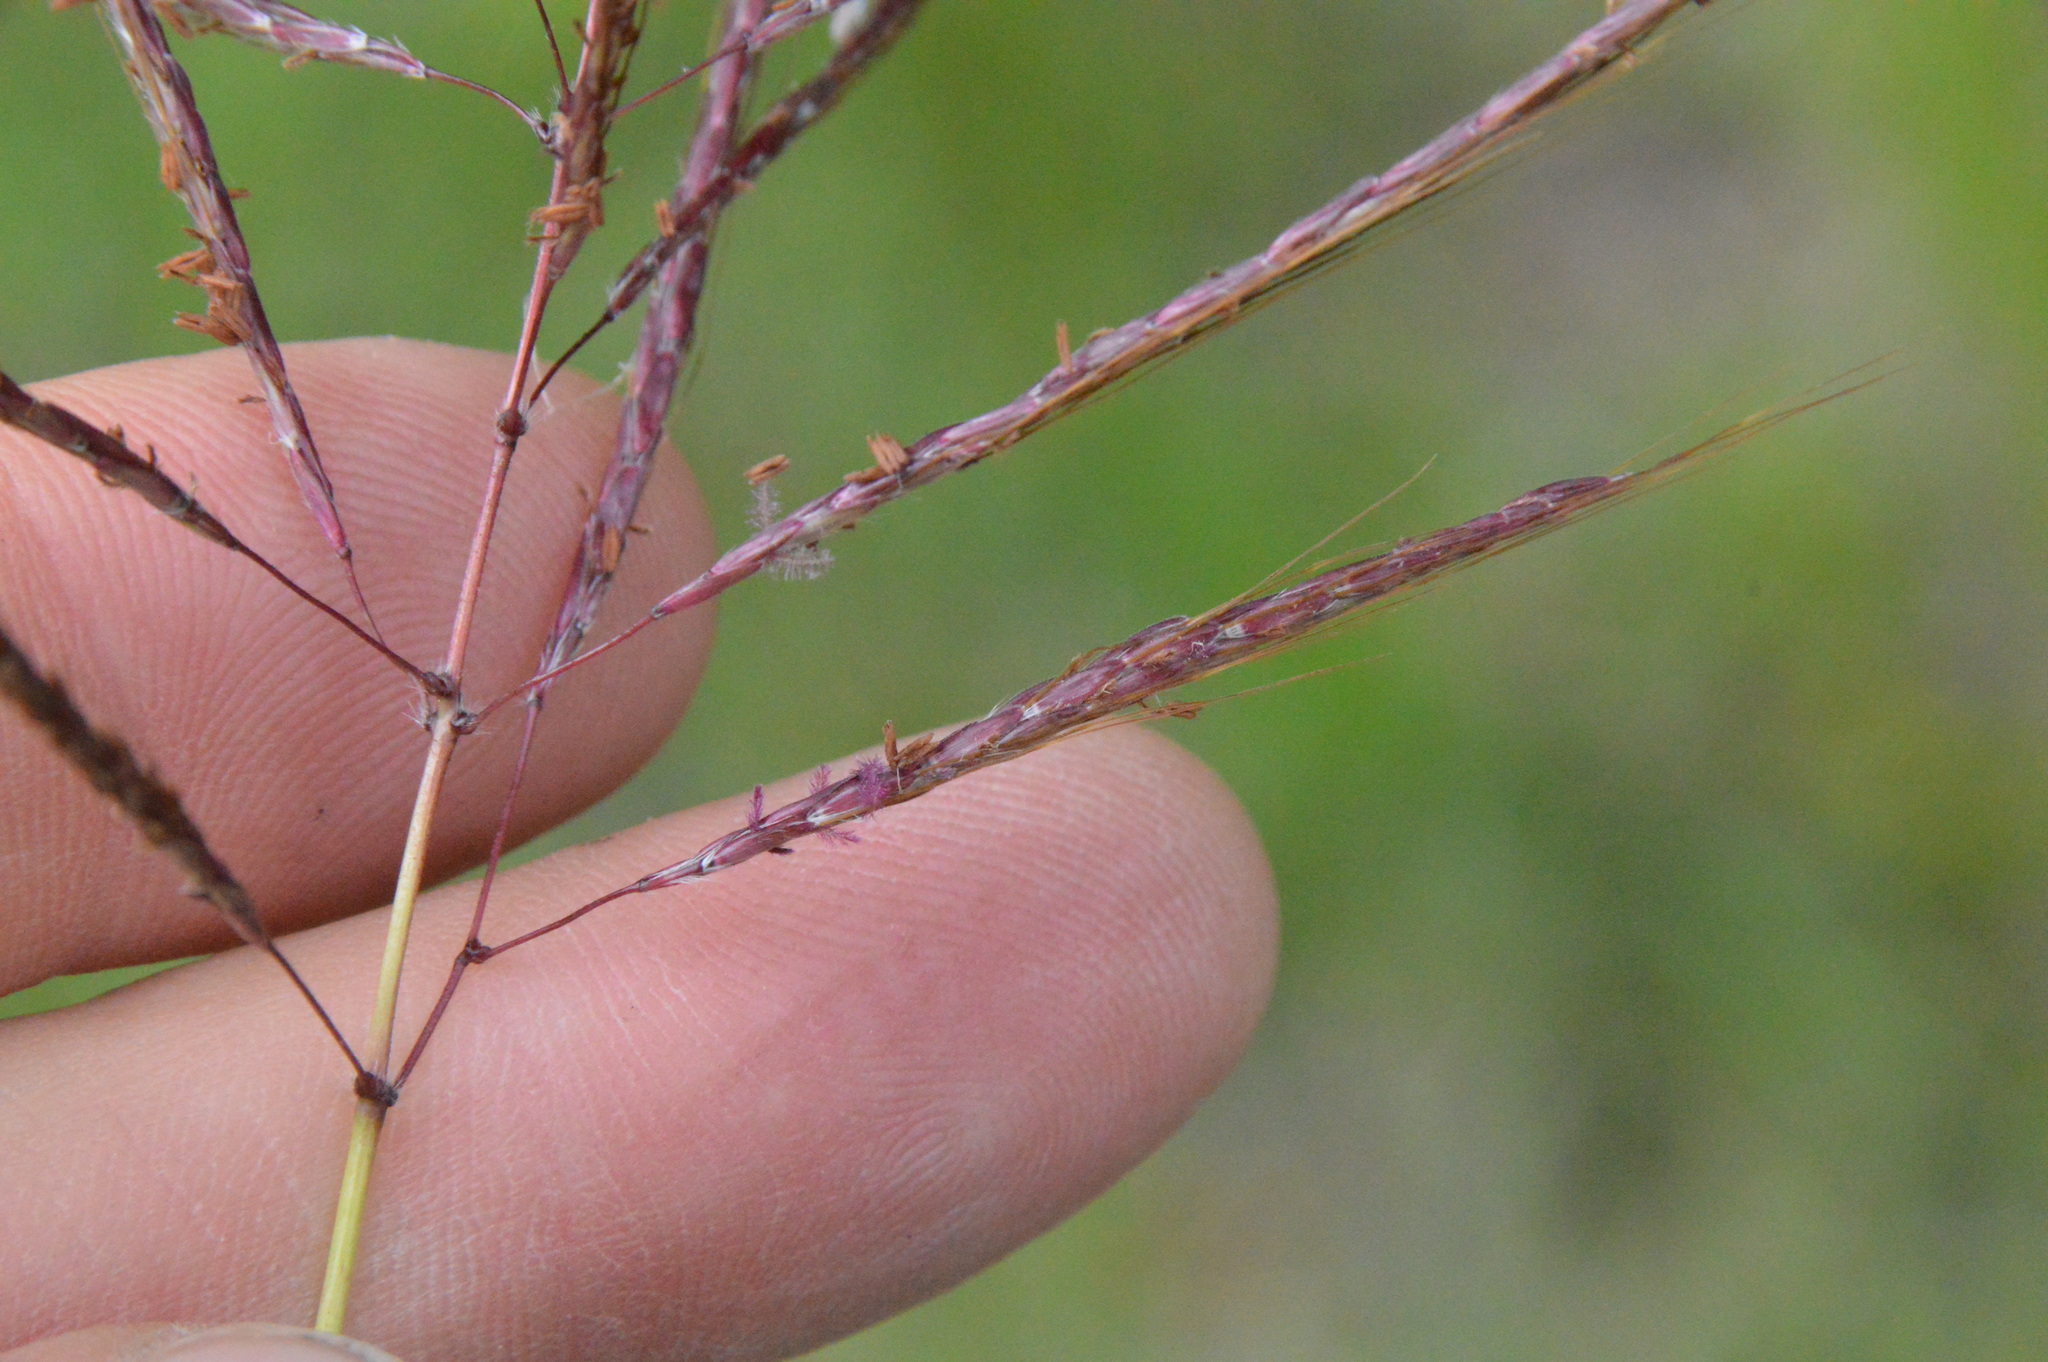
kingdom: Plantae
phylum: Tracheophyta
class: Liliopsida
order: Poales
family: Poaceae
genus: Bothriochloa
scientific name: Bothriochloa bladhii
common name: Caucasian bluestem
